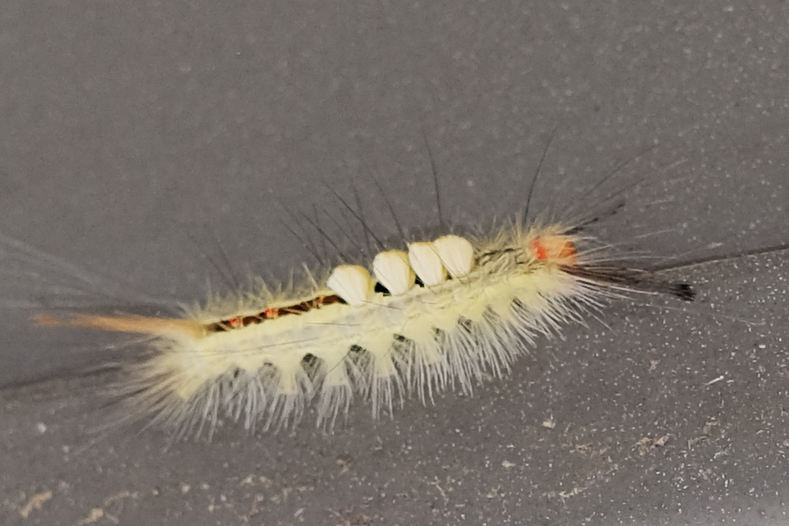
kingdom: Animalia
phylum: Arthropoda
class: Insecta
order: Lepidoptera
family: Erebidae
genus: Orgyia
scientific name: Orgyia leucostigma
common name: White-marked tussock moth
